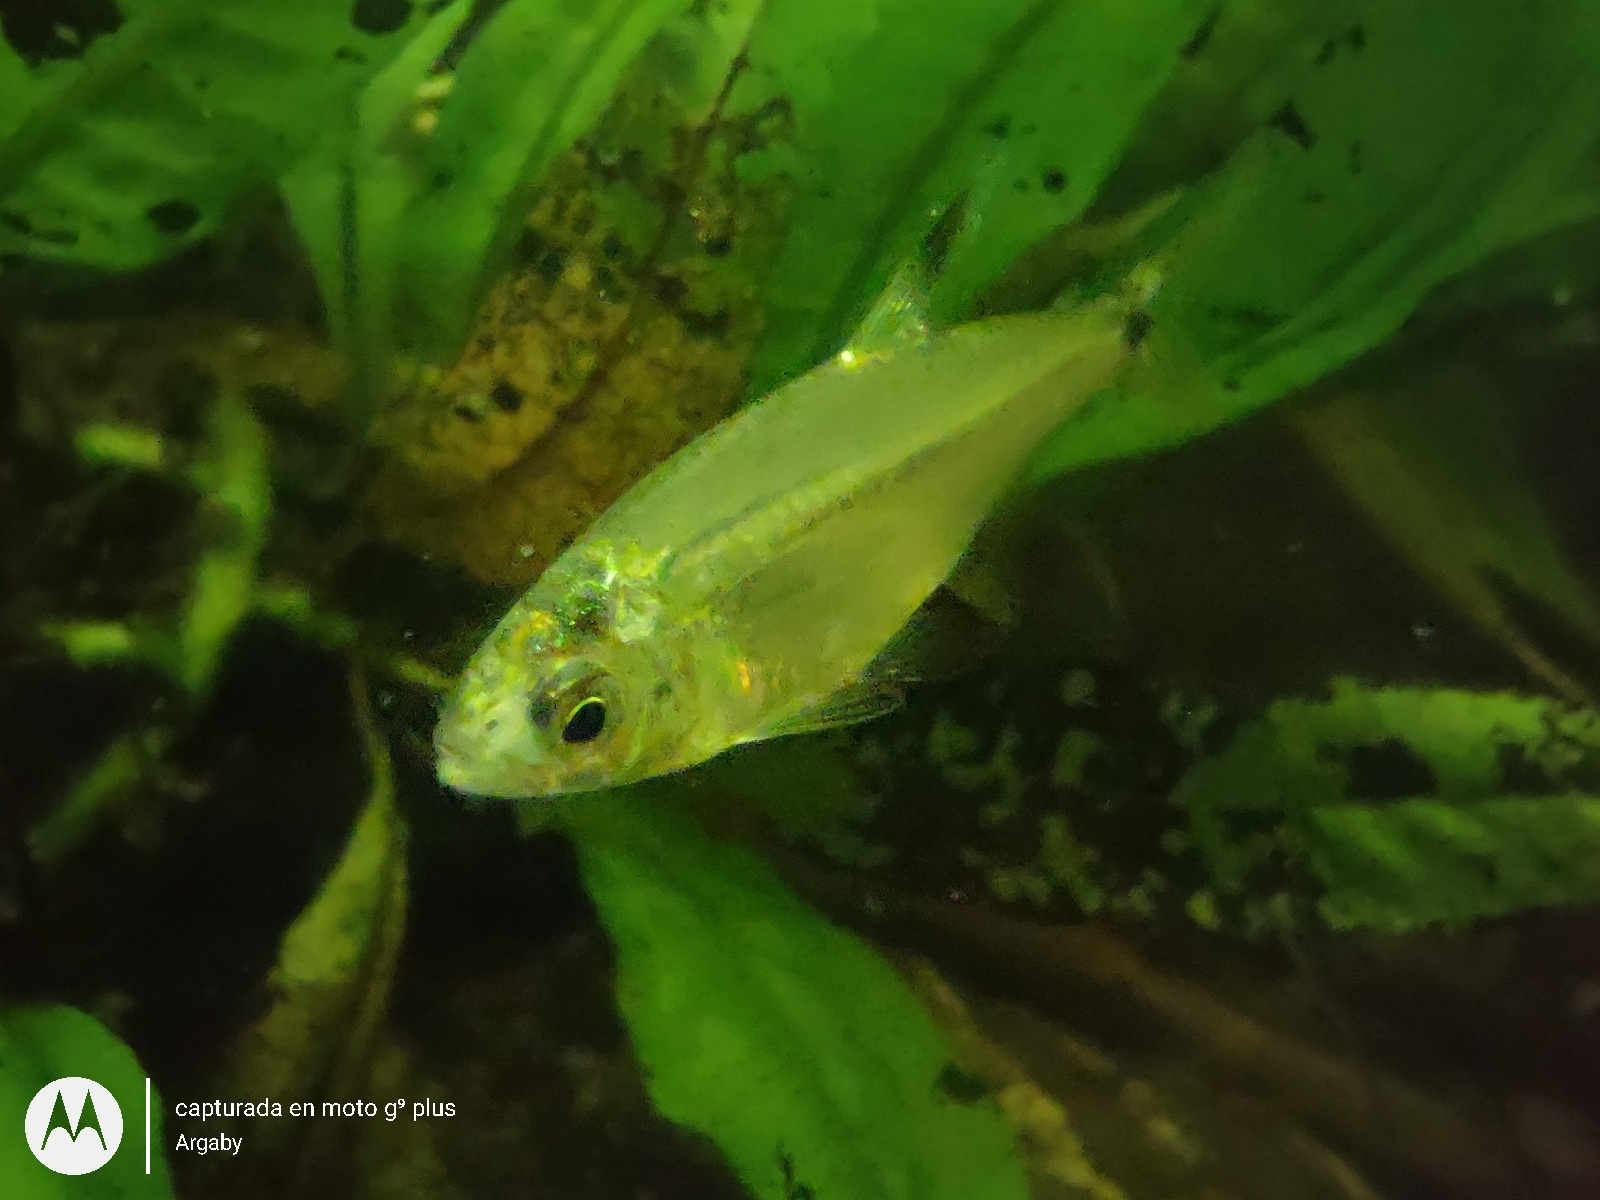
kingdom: Animalia
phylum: Chordata
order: Characiformes
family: Characidae
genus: Odontostilbe
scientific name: Odontostilbe pequira
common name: Tetra
